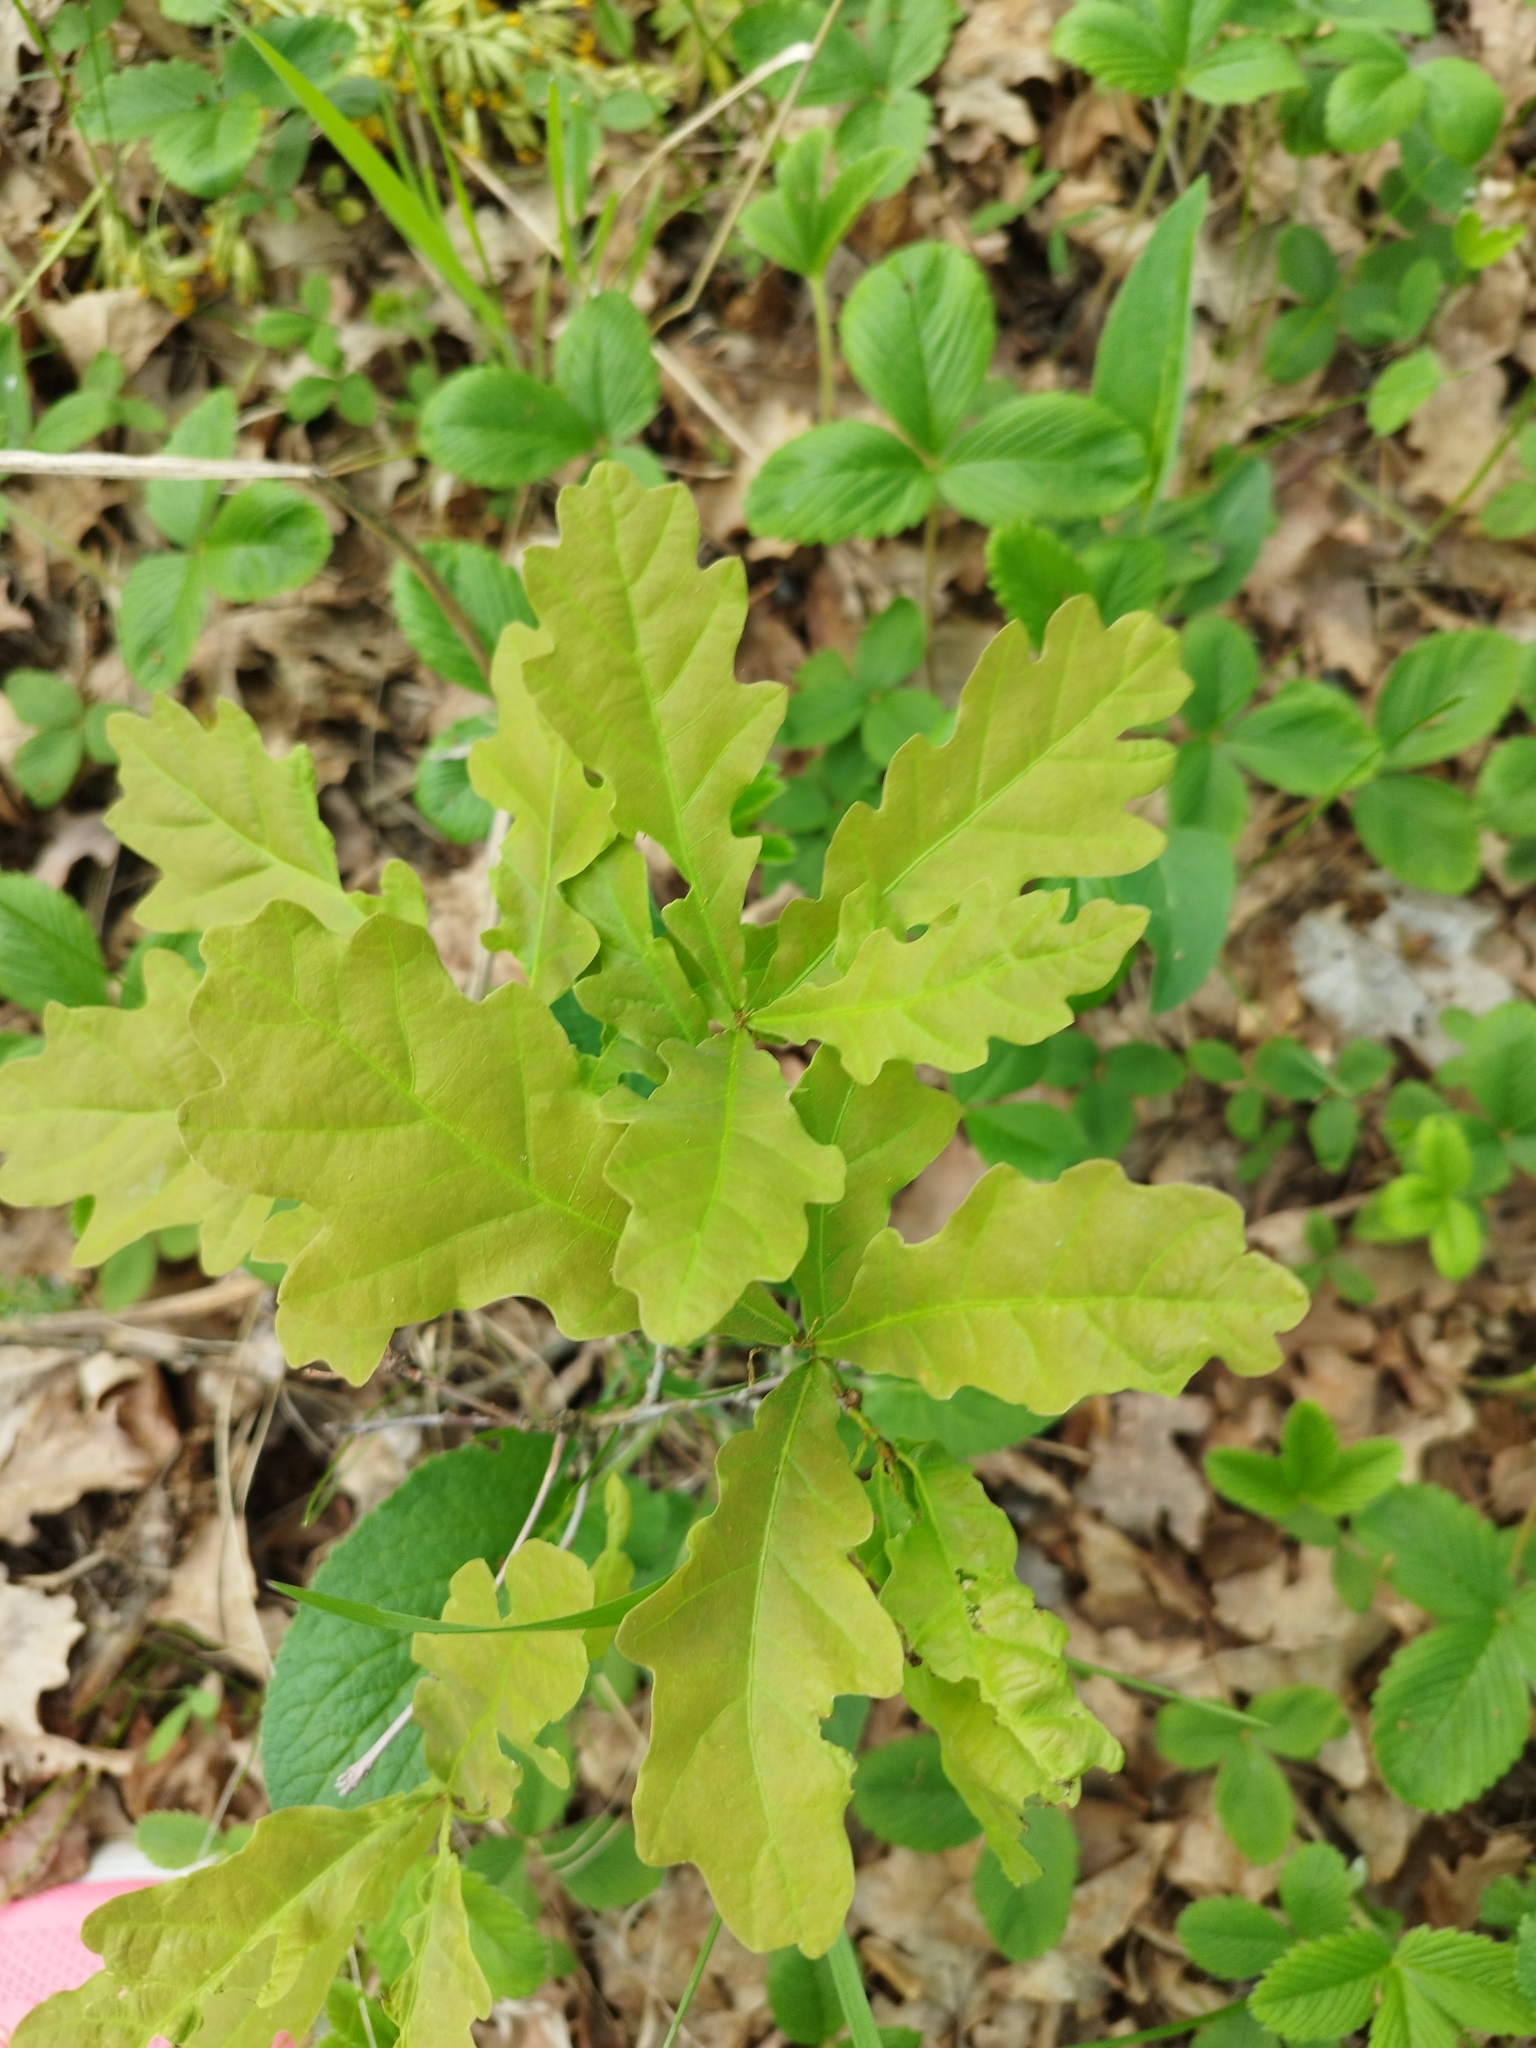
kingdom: Plantae
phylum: Tracheophyta
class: Magnoliopsida
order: Fagales
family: Fagaceae
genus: Quercus
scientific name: Quercus robur
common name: Pedunculate oak
